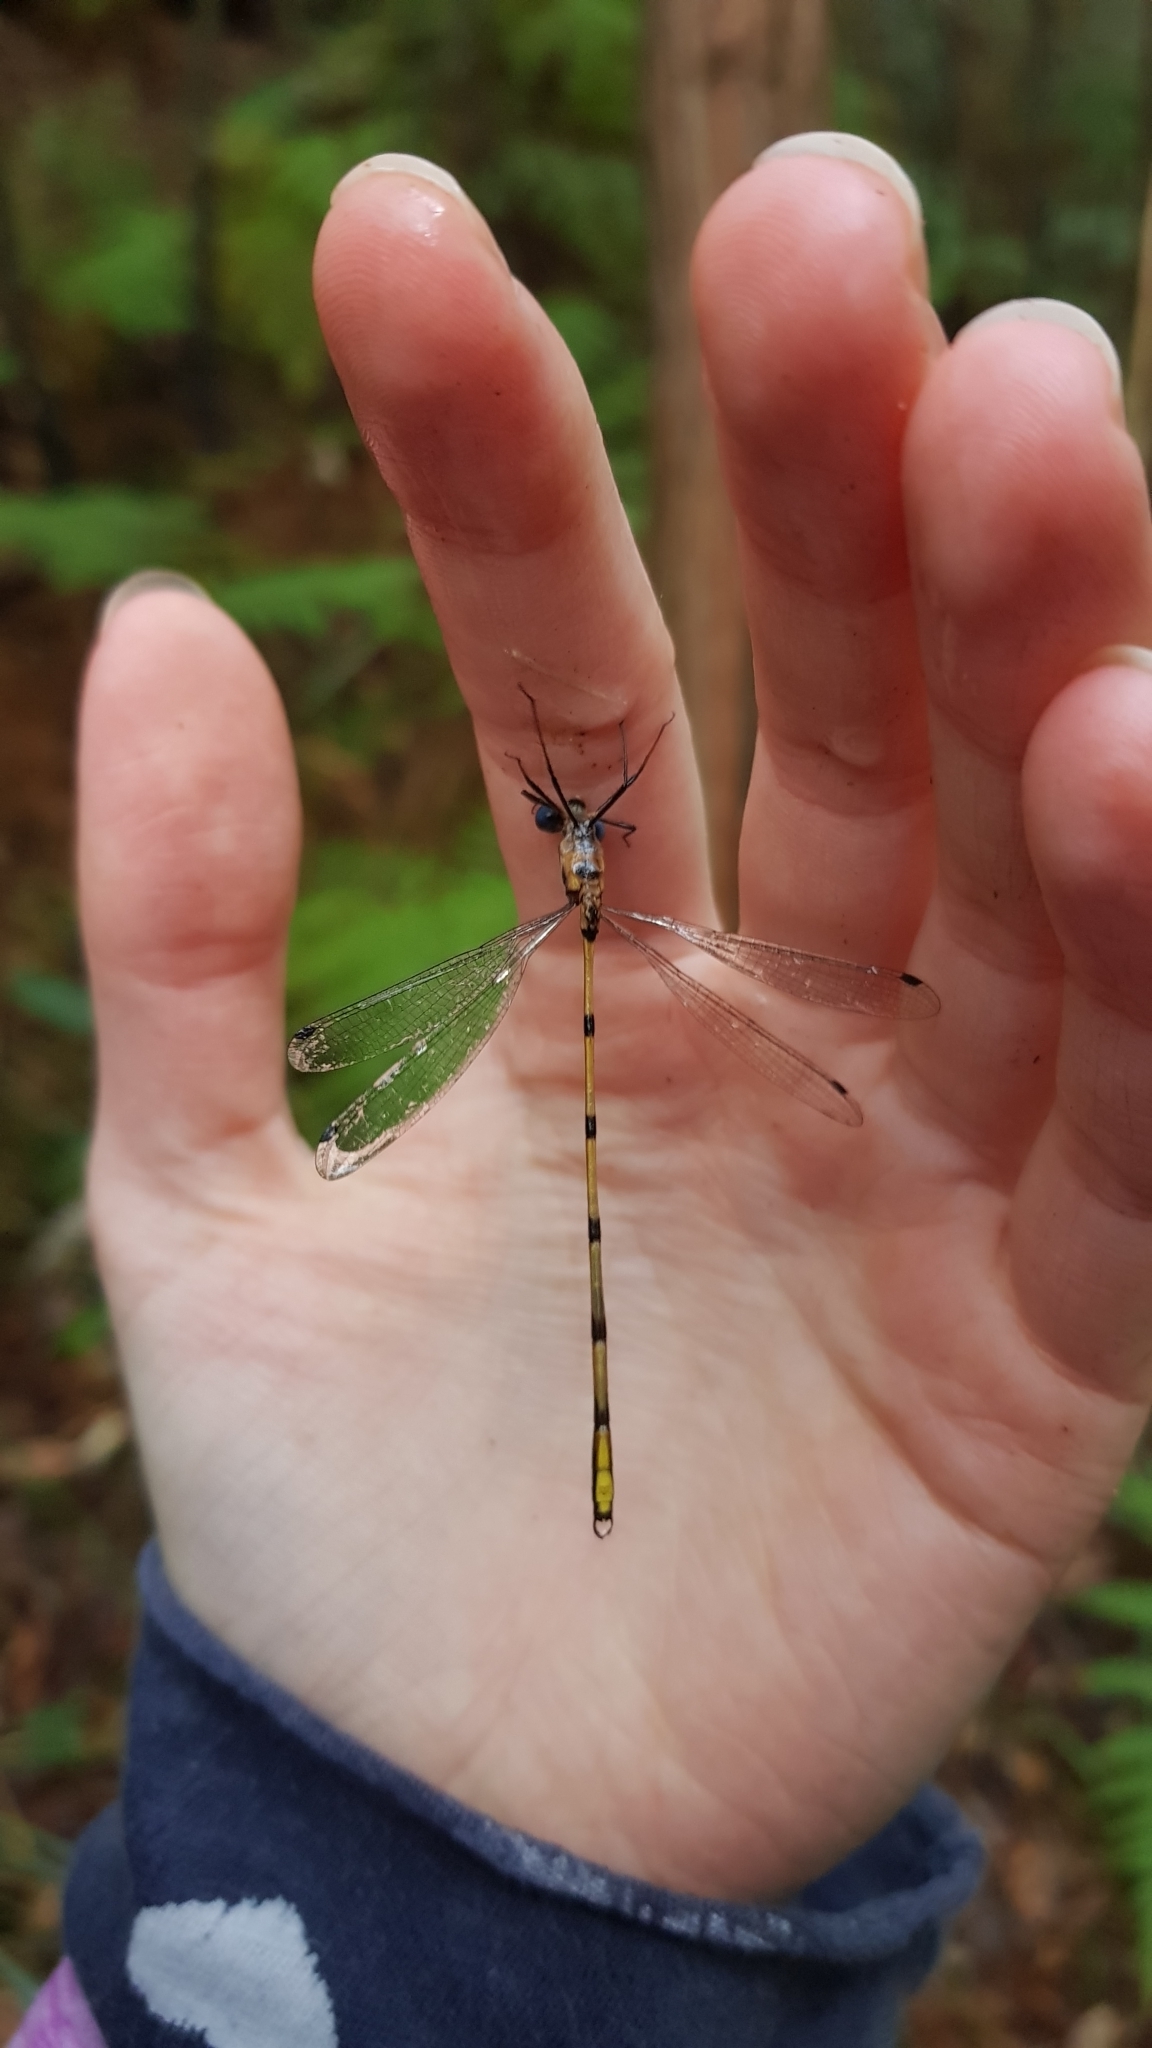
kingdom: Animalia
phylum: Arthropoda
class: Insecta
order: Odonata
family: Synlestidae
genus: Synlestes
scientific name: Synlestes weyersii
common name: Bronze needle
